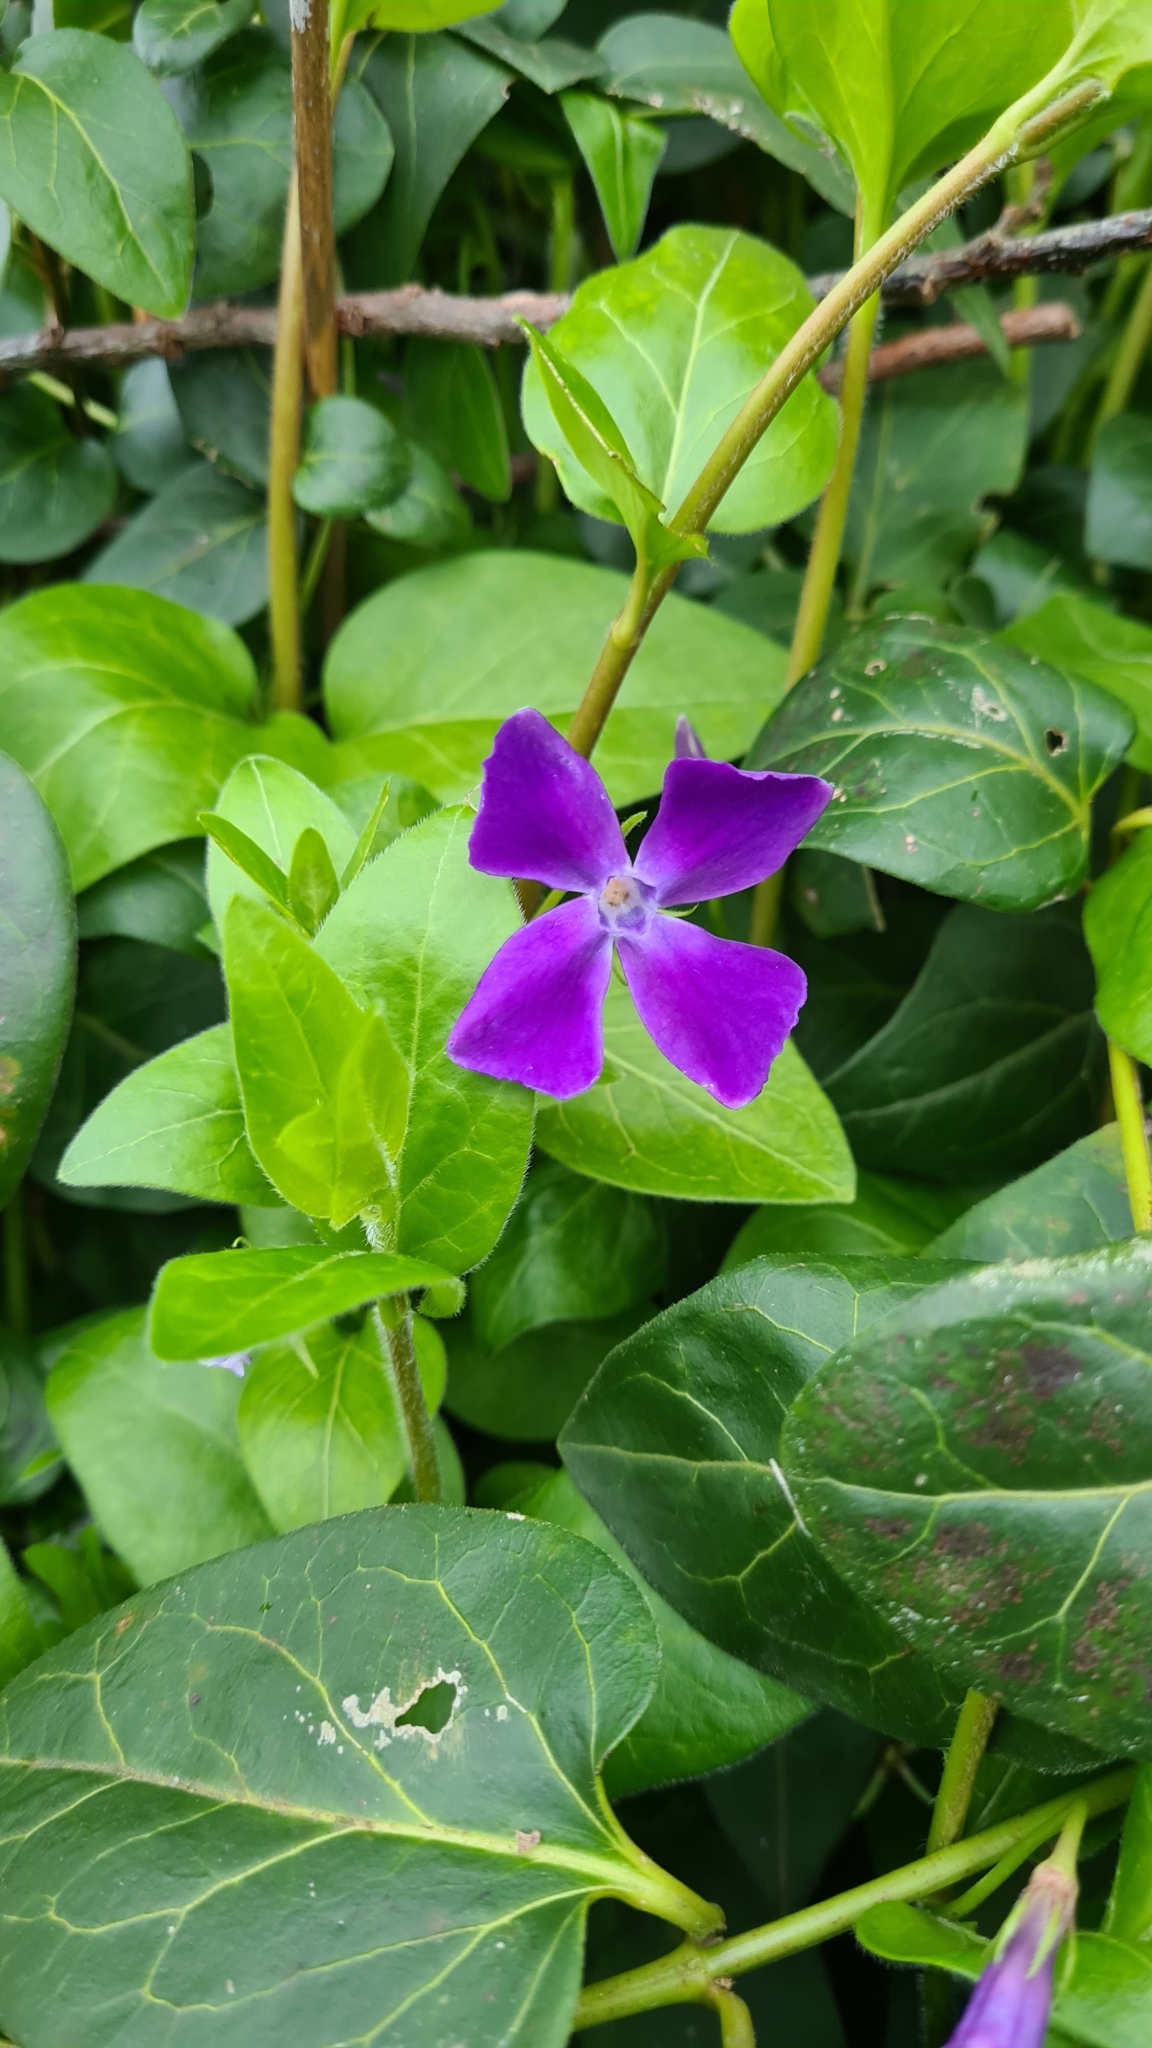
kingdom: Plantae
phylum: Tracheophyta
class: Magnoliopsida
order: Gentianales
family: Apocynaceae
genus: Vinca
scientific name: Vinca major
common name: Greater periwinkle
